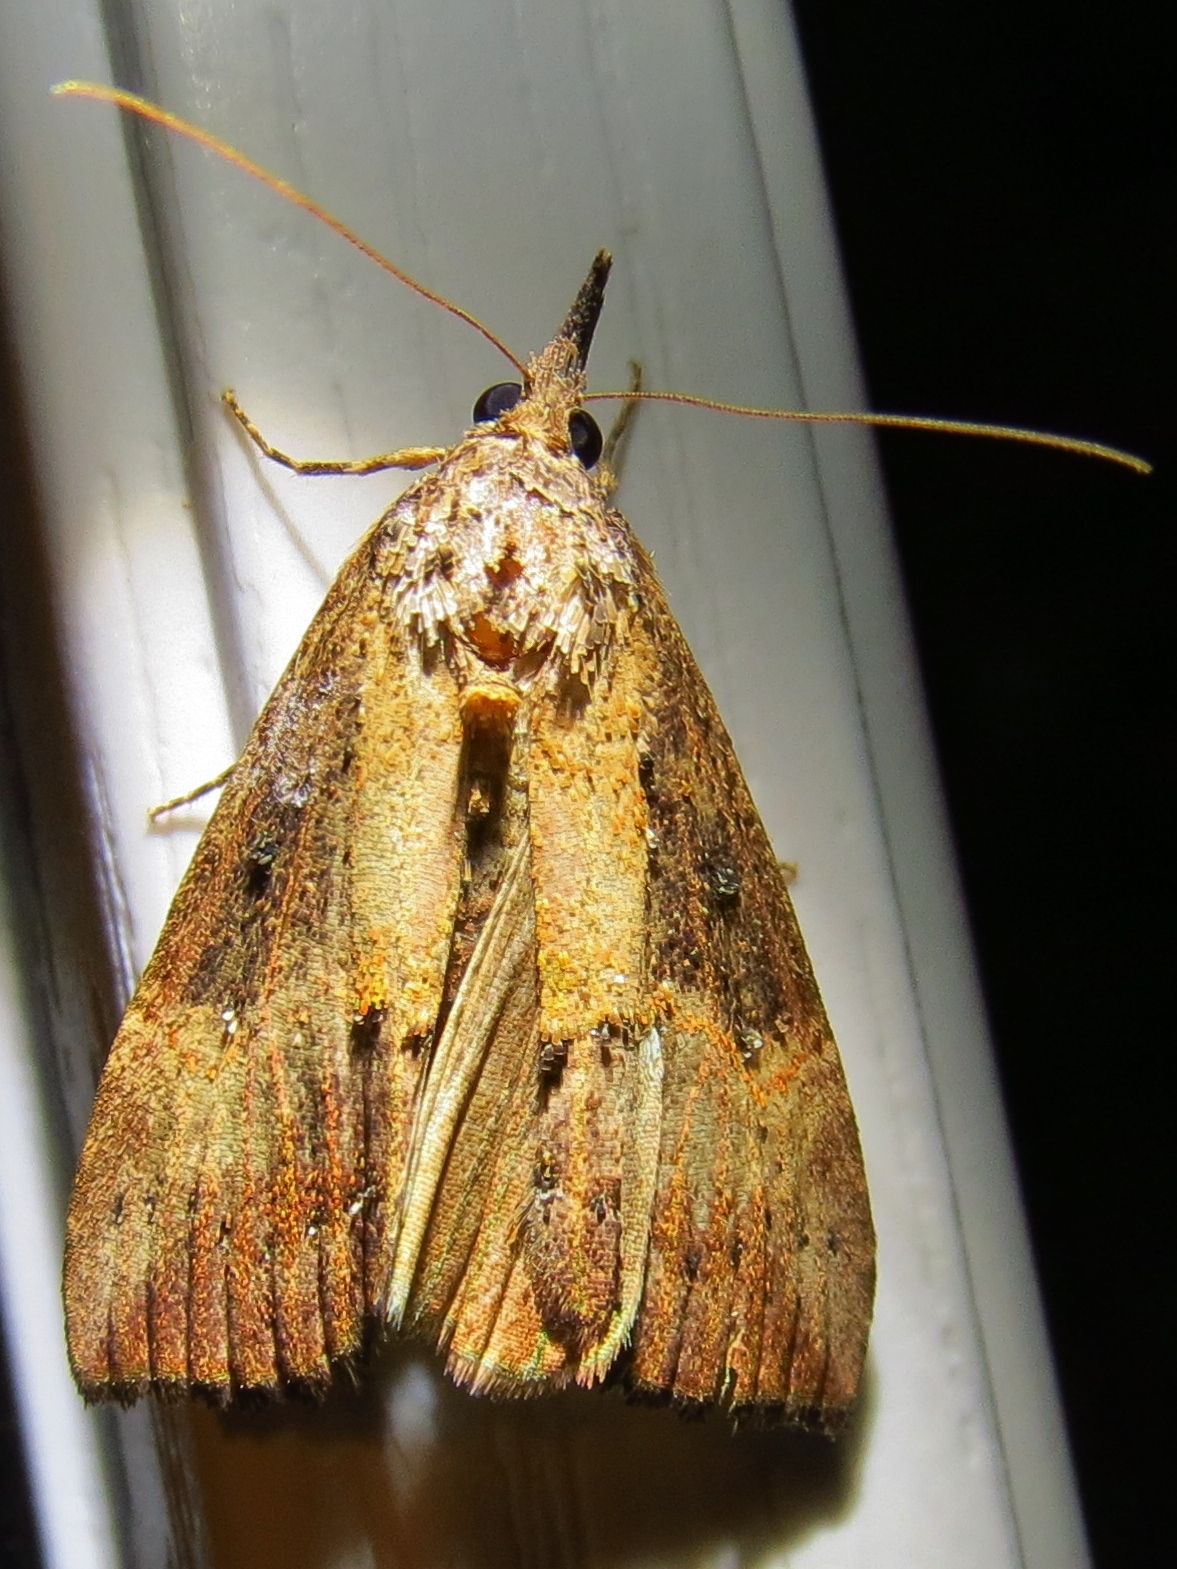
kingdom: Animalia
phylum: Arthropoda
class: Insecta
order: Lepidoptera
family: Erebidae
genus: Hypena
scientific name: Hypena scabra
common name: Green cloverworm
